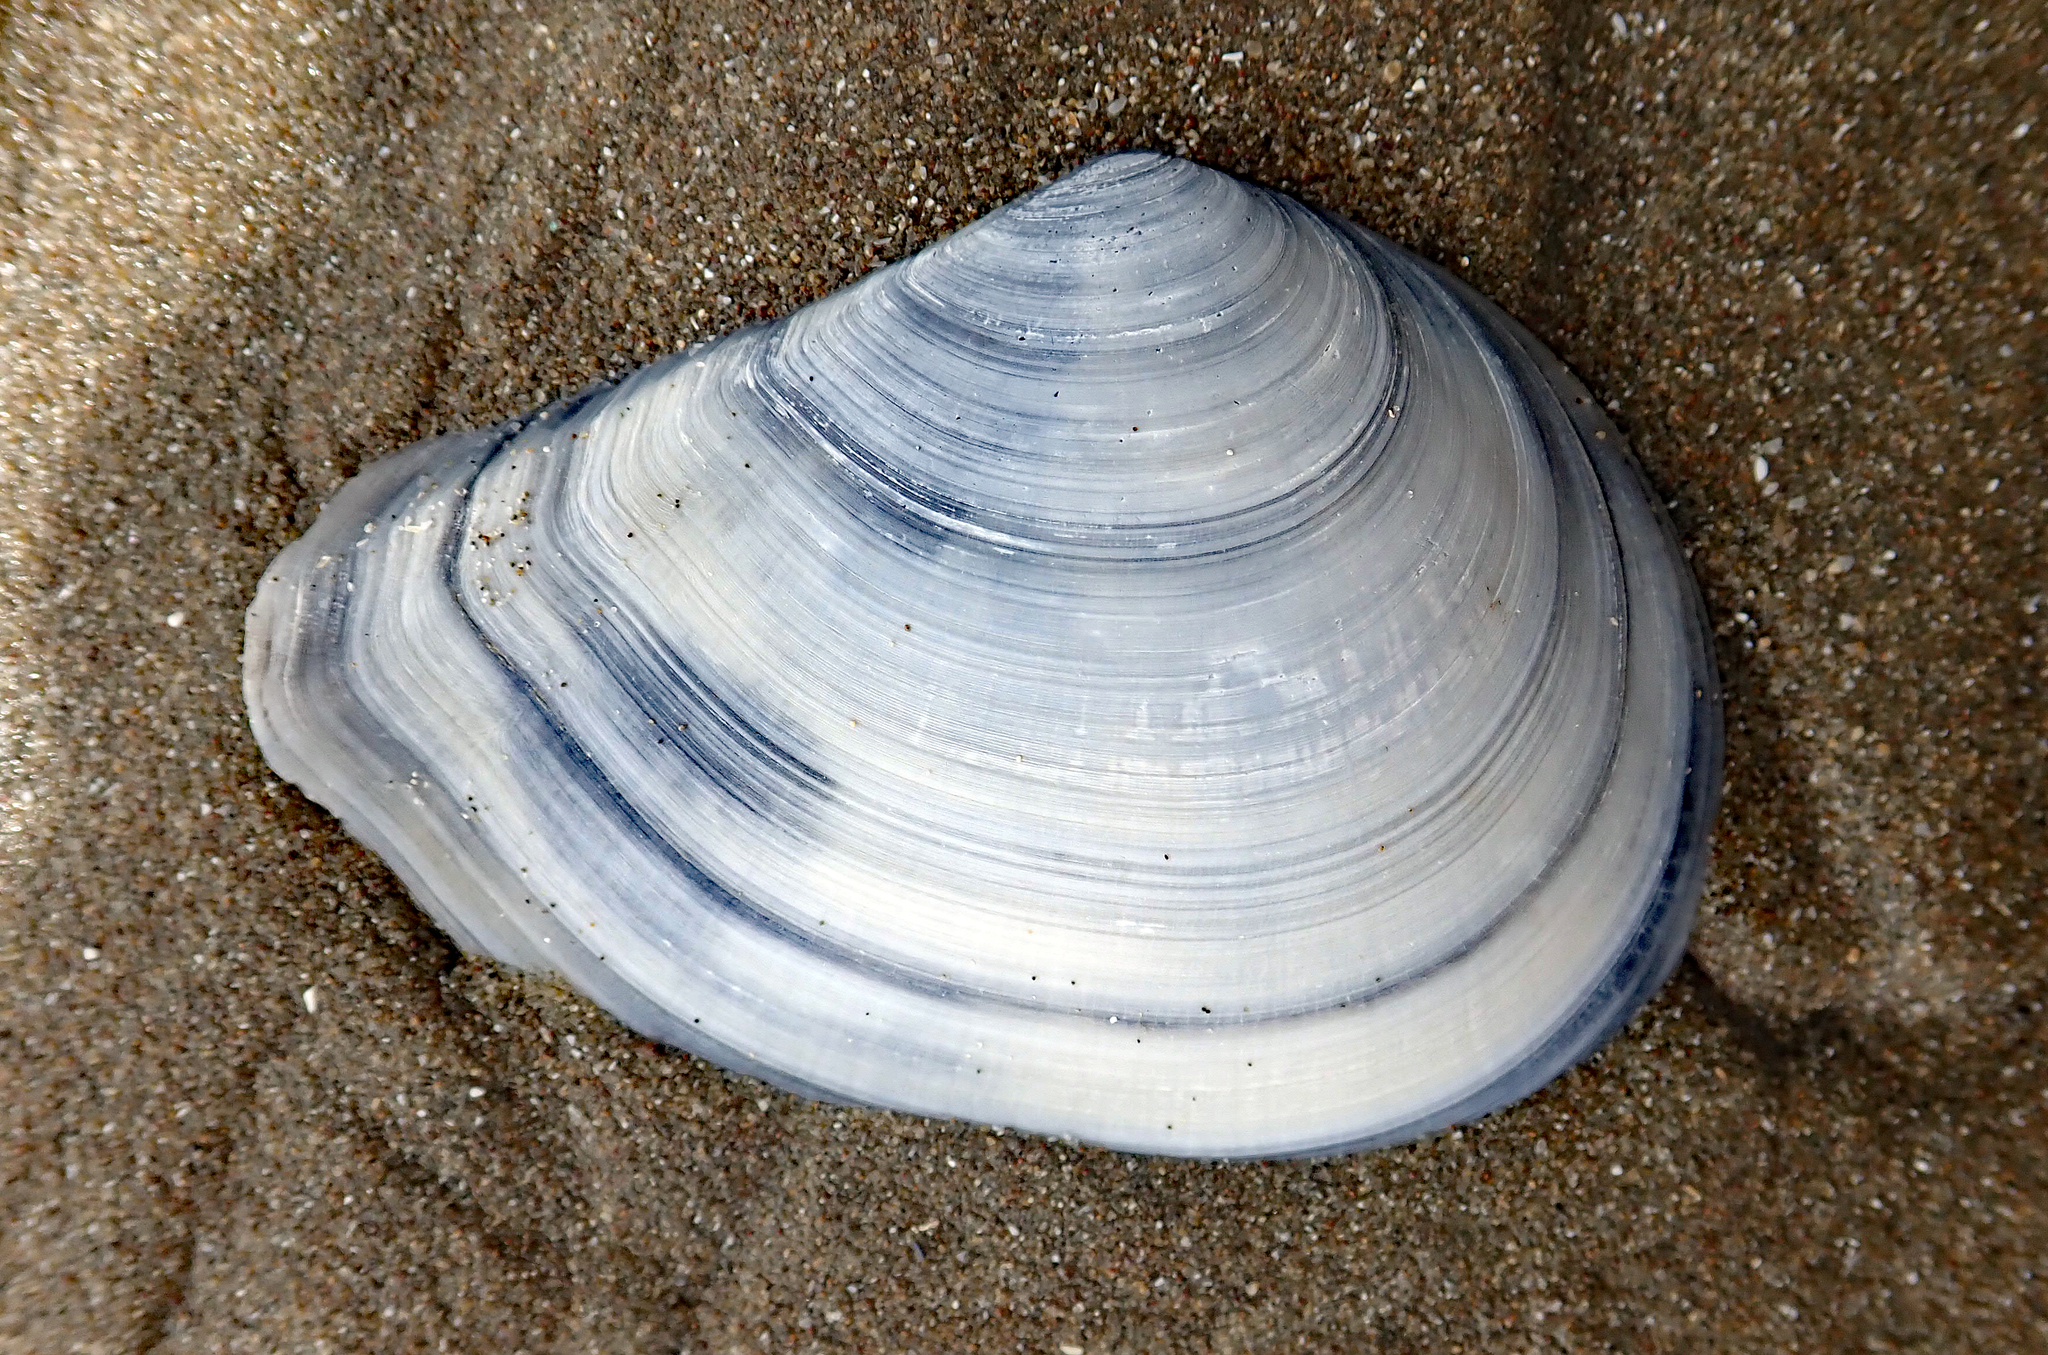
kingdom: Animalia
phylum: Mollusca
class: Bivalvia
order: Cardiida
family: Tellinidae
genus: Macomona
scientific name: Macomona liliana
